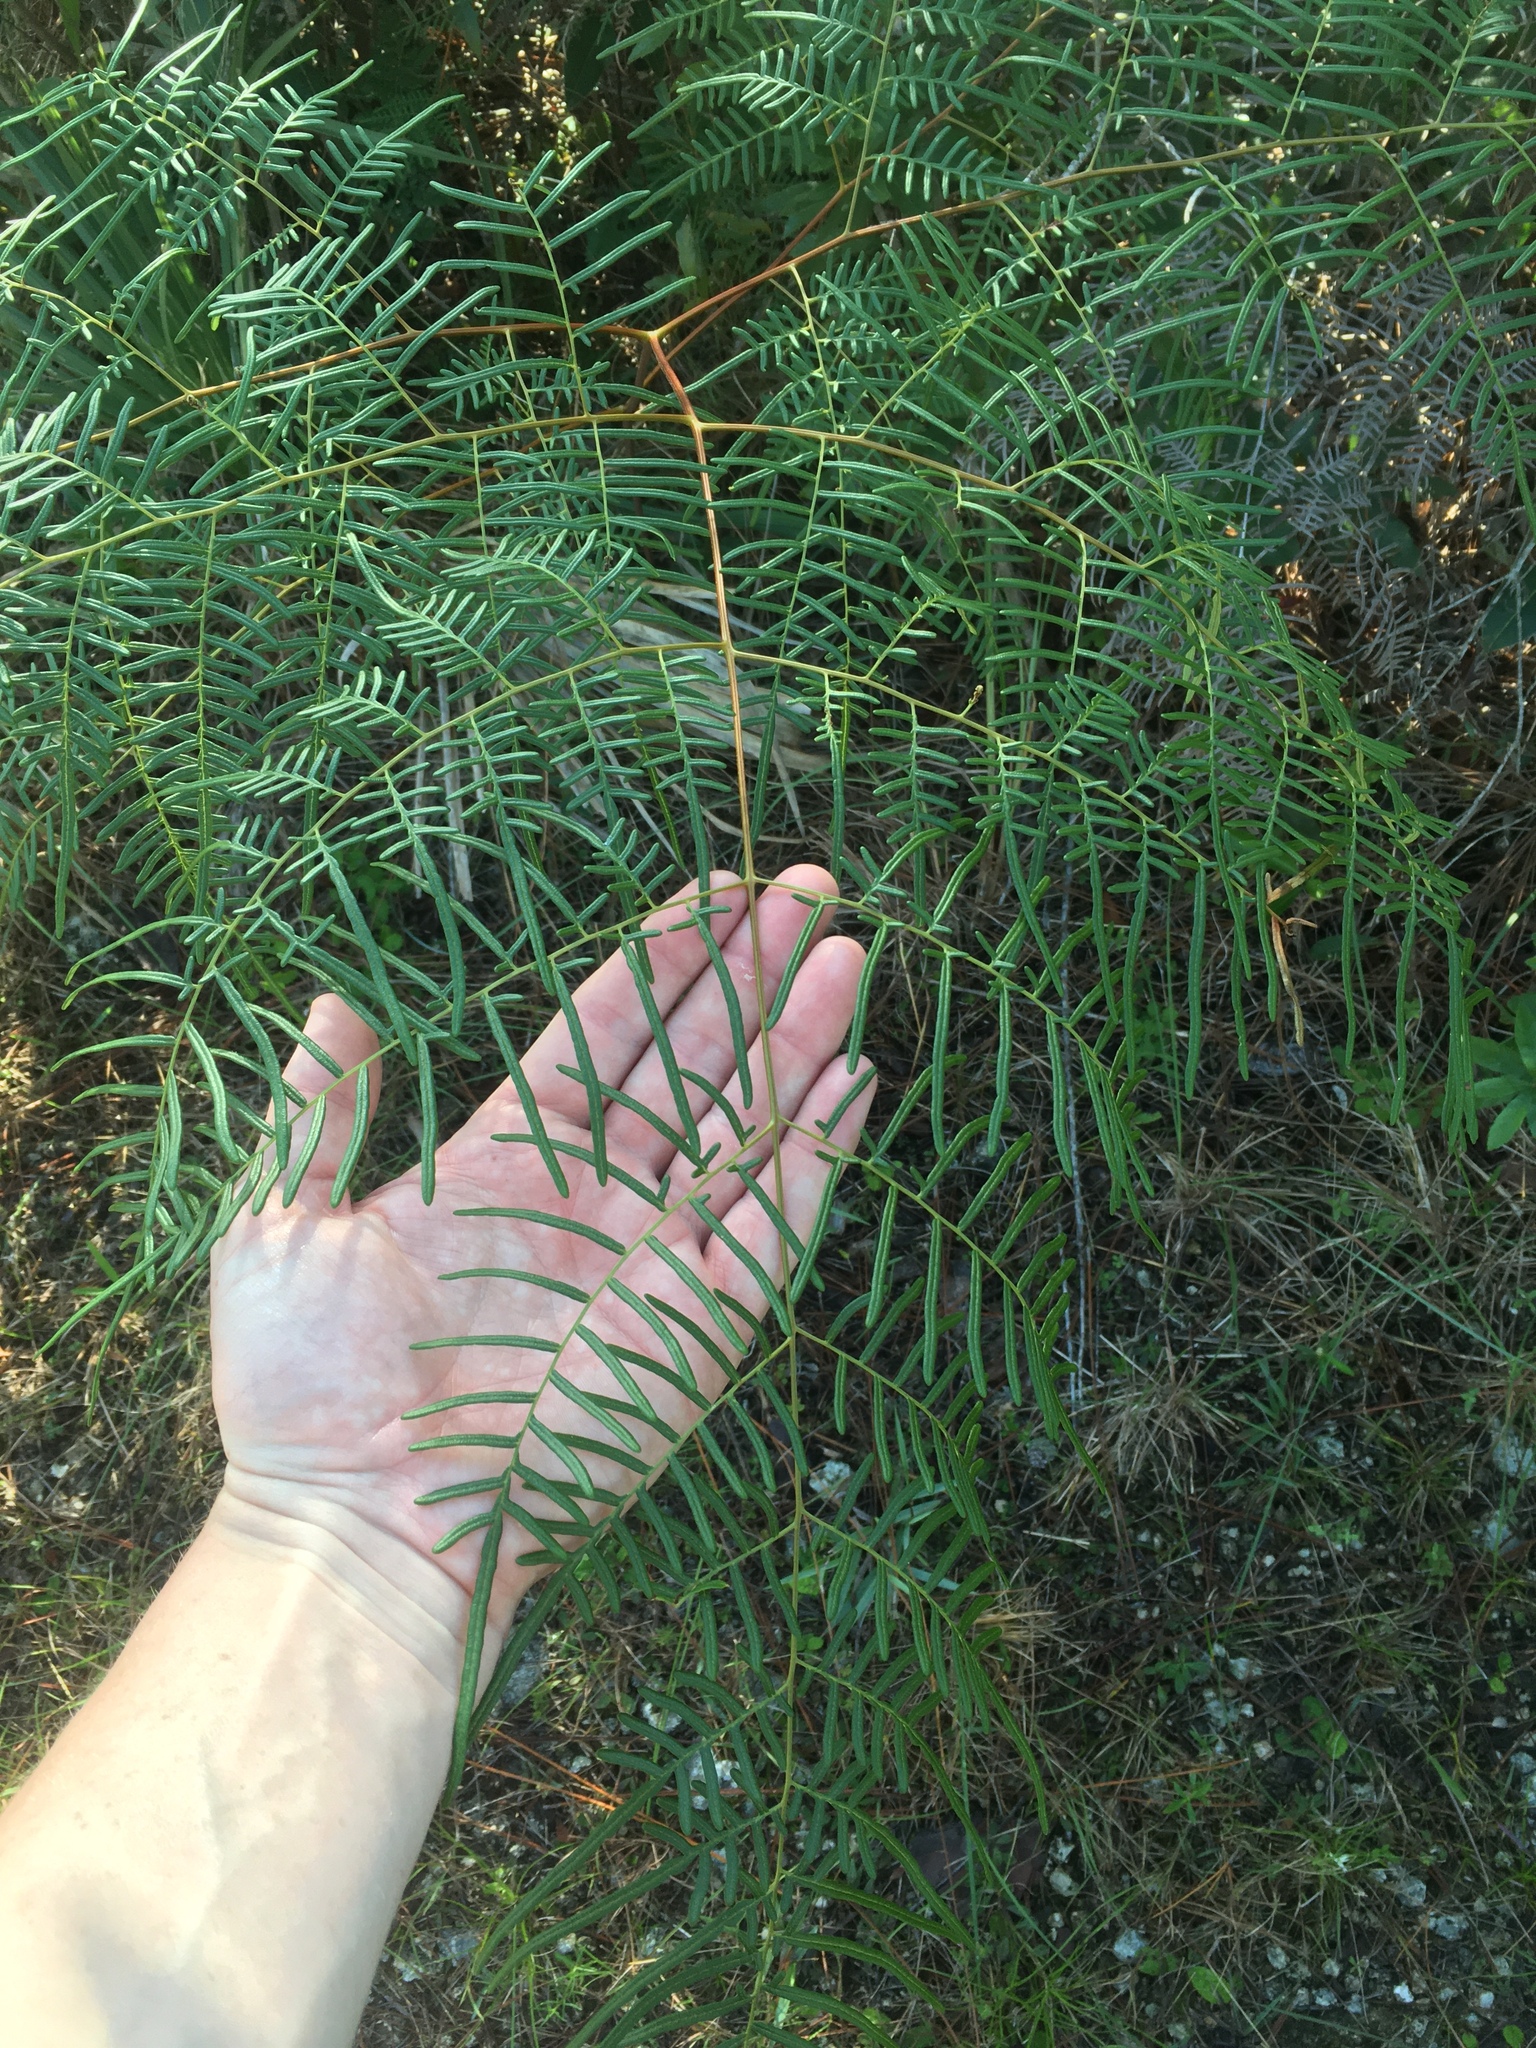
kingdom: Plantae
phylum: Tracheophyta
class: Polypodiopsida
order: Polypodiales
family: Dennstaedtiaceae
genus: Pteridium
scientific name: Pteridium caudatum
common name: Southern bracken fern
